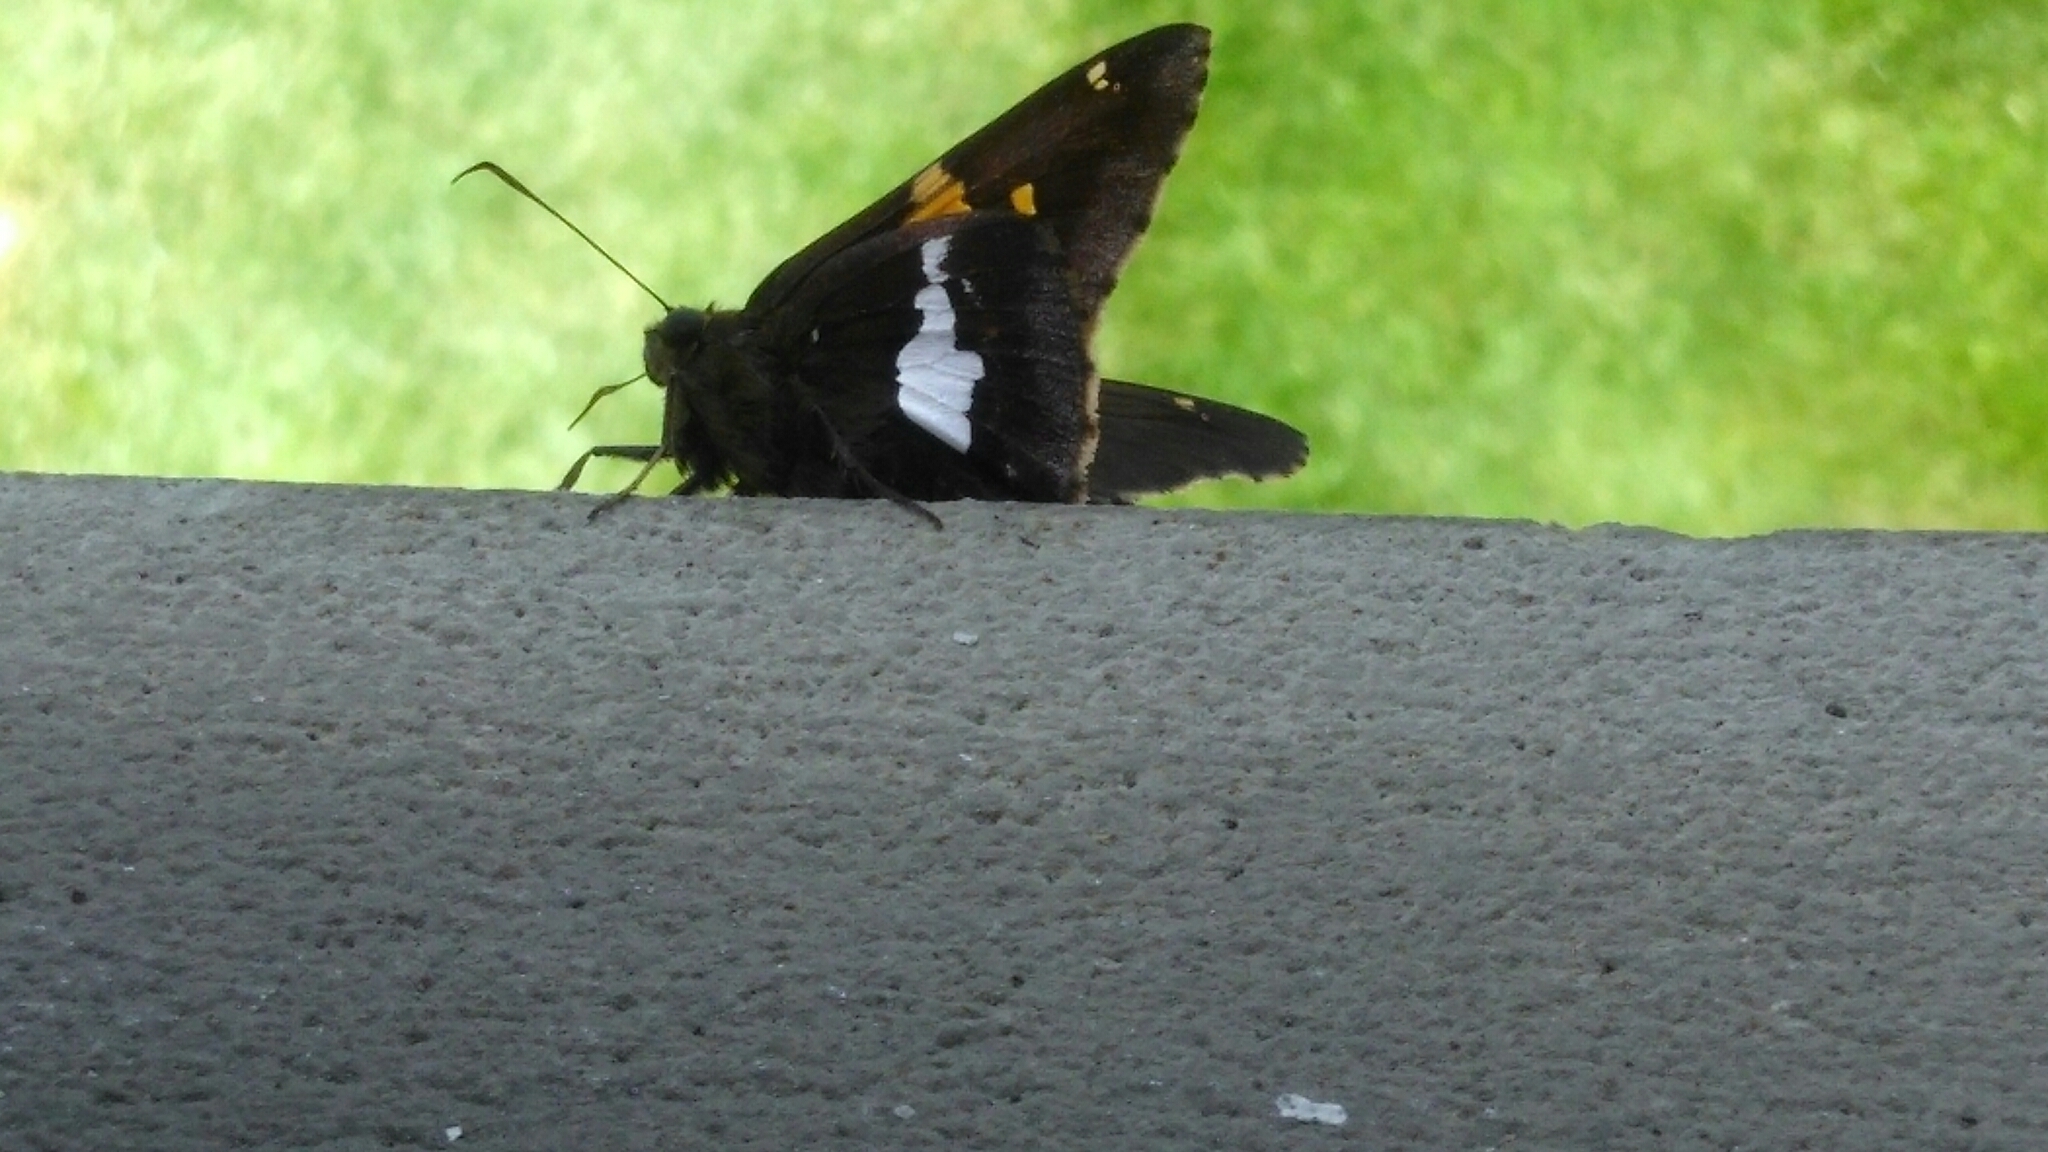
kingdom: Animalia
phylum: Arthropoda
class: Insecta
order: Lepidoptera
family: Hesperiidae
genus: Epargyreus
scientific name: Epargyreus clarus
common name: Silver-spotted skipper
